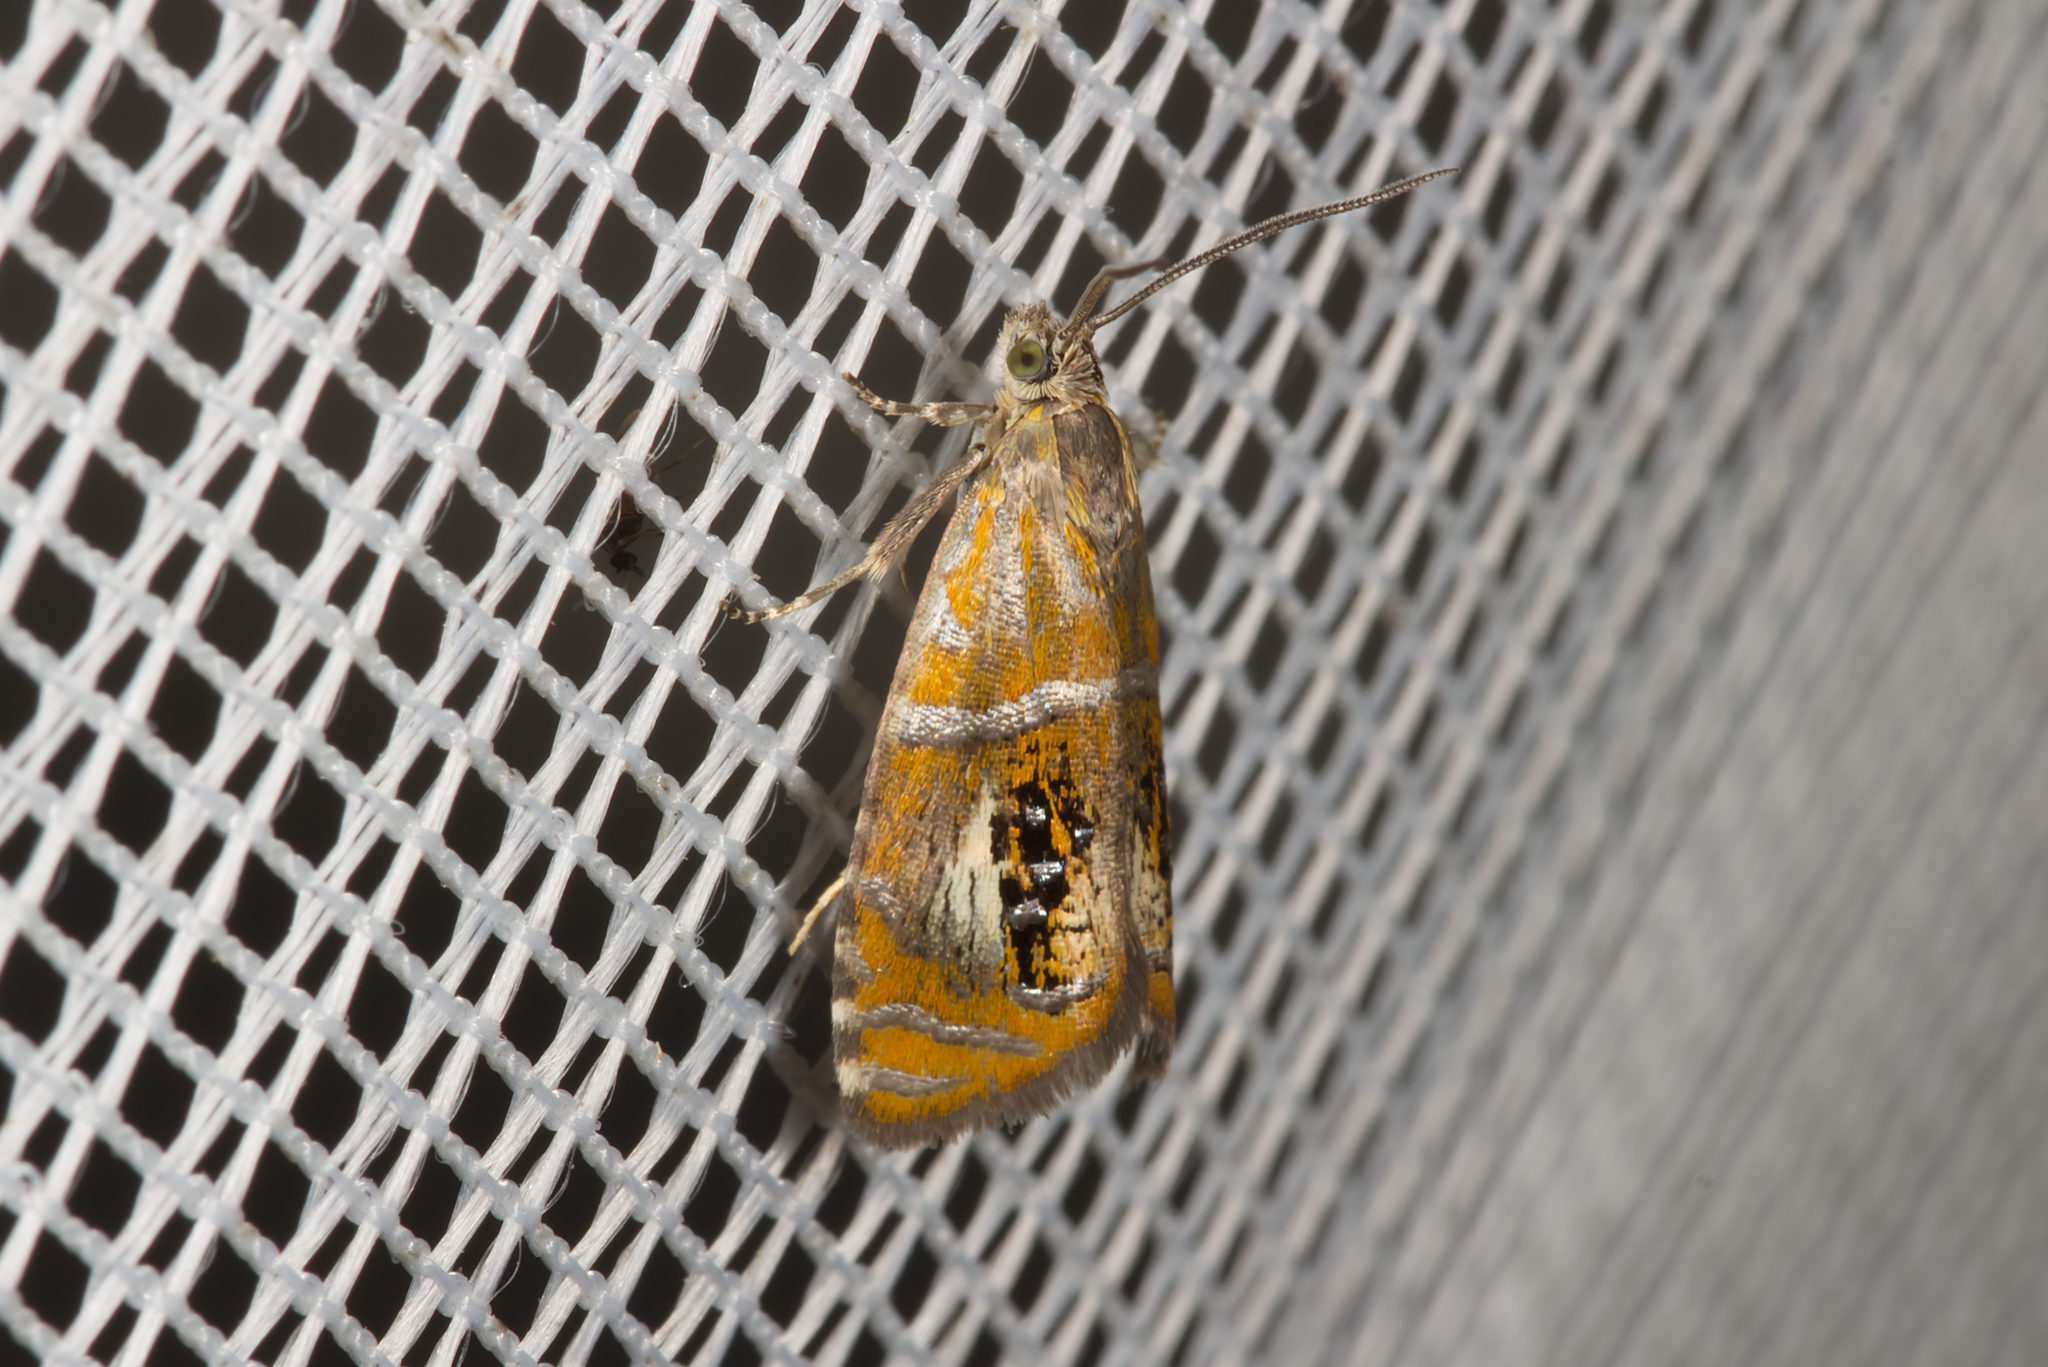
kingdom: Animalia
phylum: Arthropoda
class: Insecta
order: Lepidoptera
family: Tortricidae
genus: Olethreutes
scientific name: Olethreutes arcuella
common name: Arched marble
